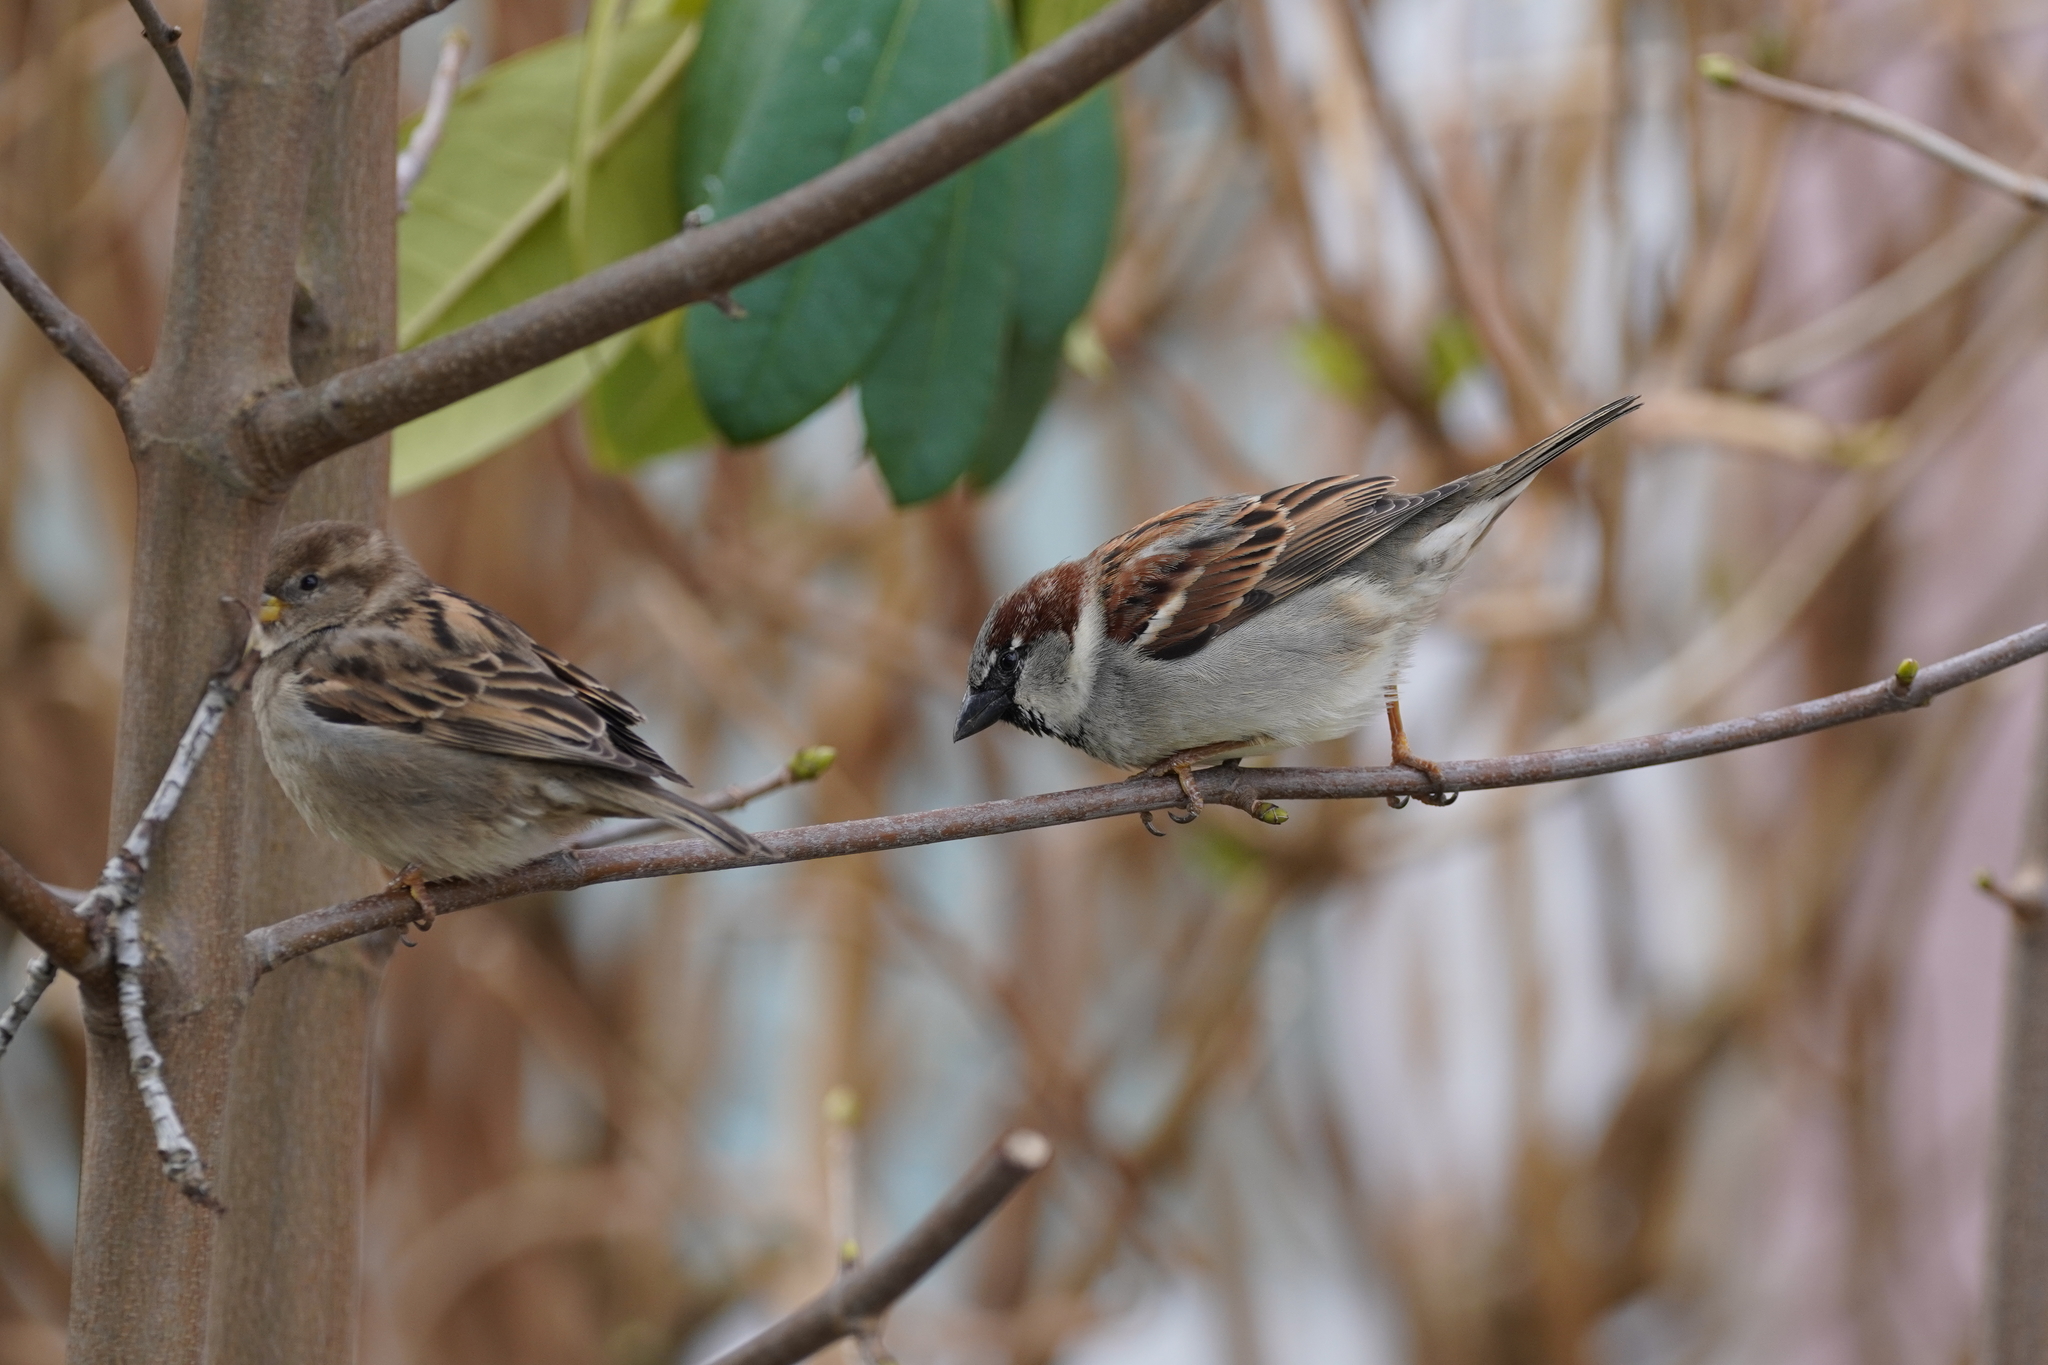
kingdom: Animalia
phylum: Chordata
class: Aves
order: Passeriformes
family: Passeridae
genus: Passer
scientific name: Passer domesticus
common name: House sparrow
